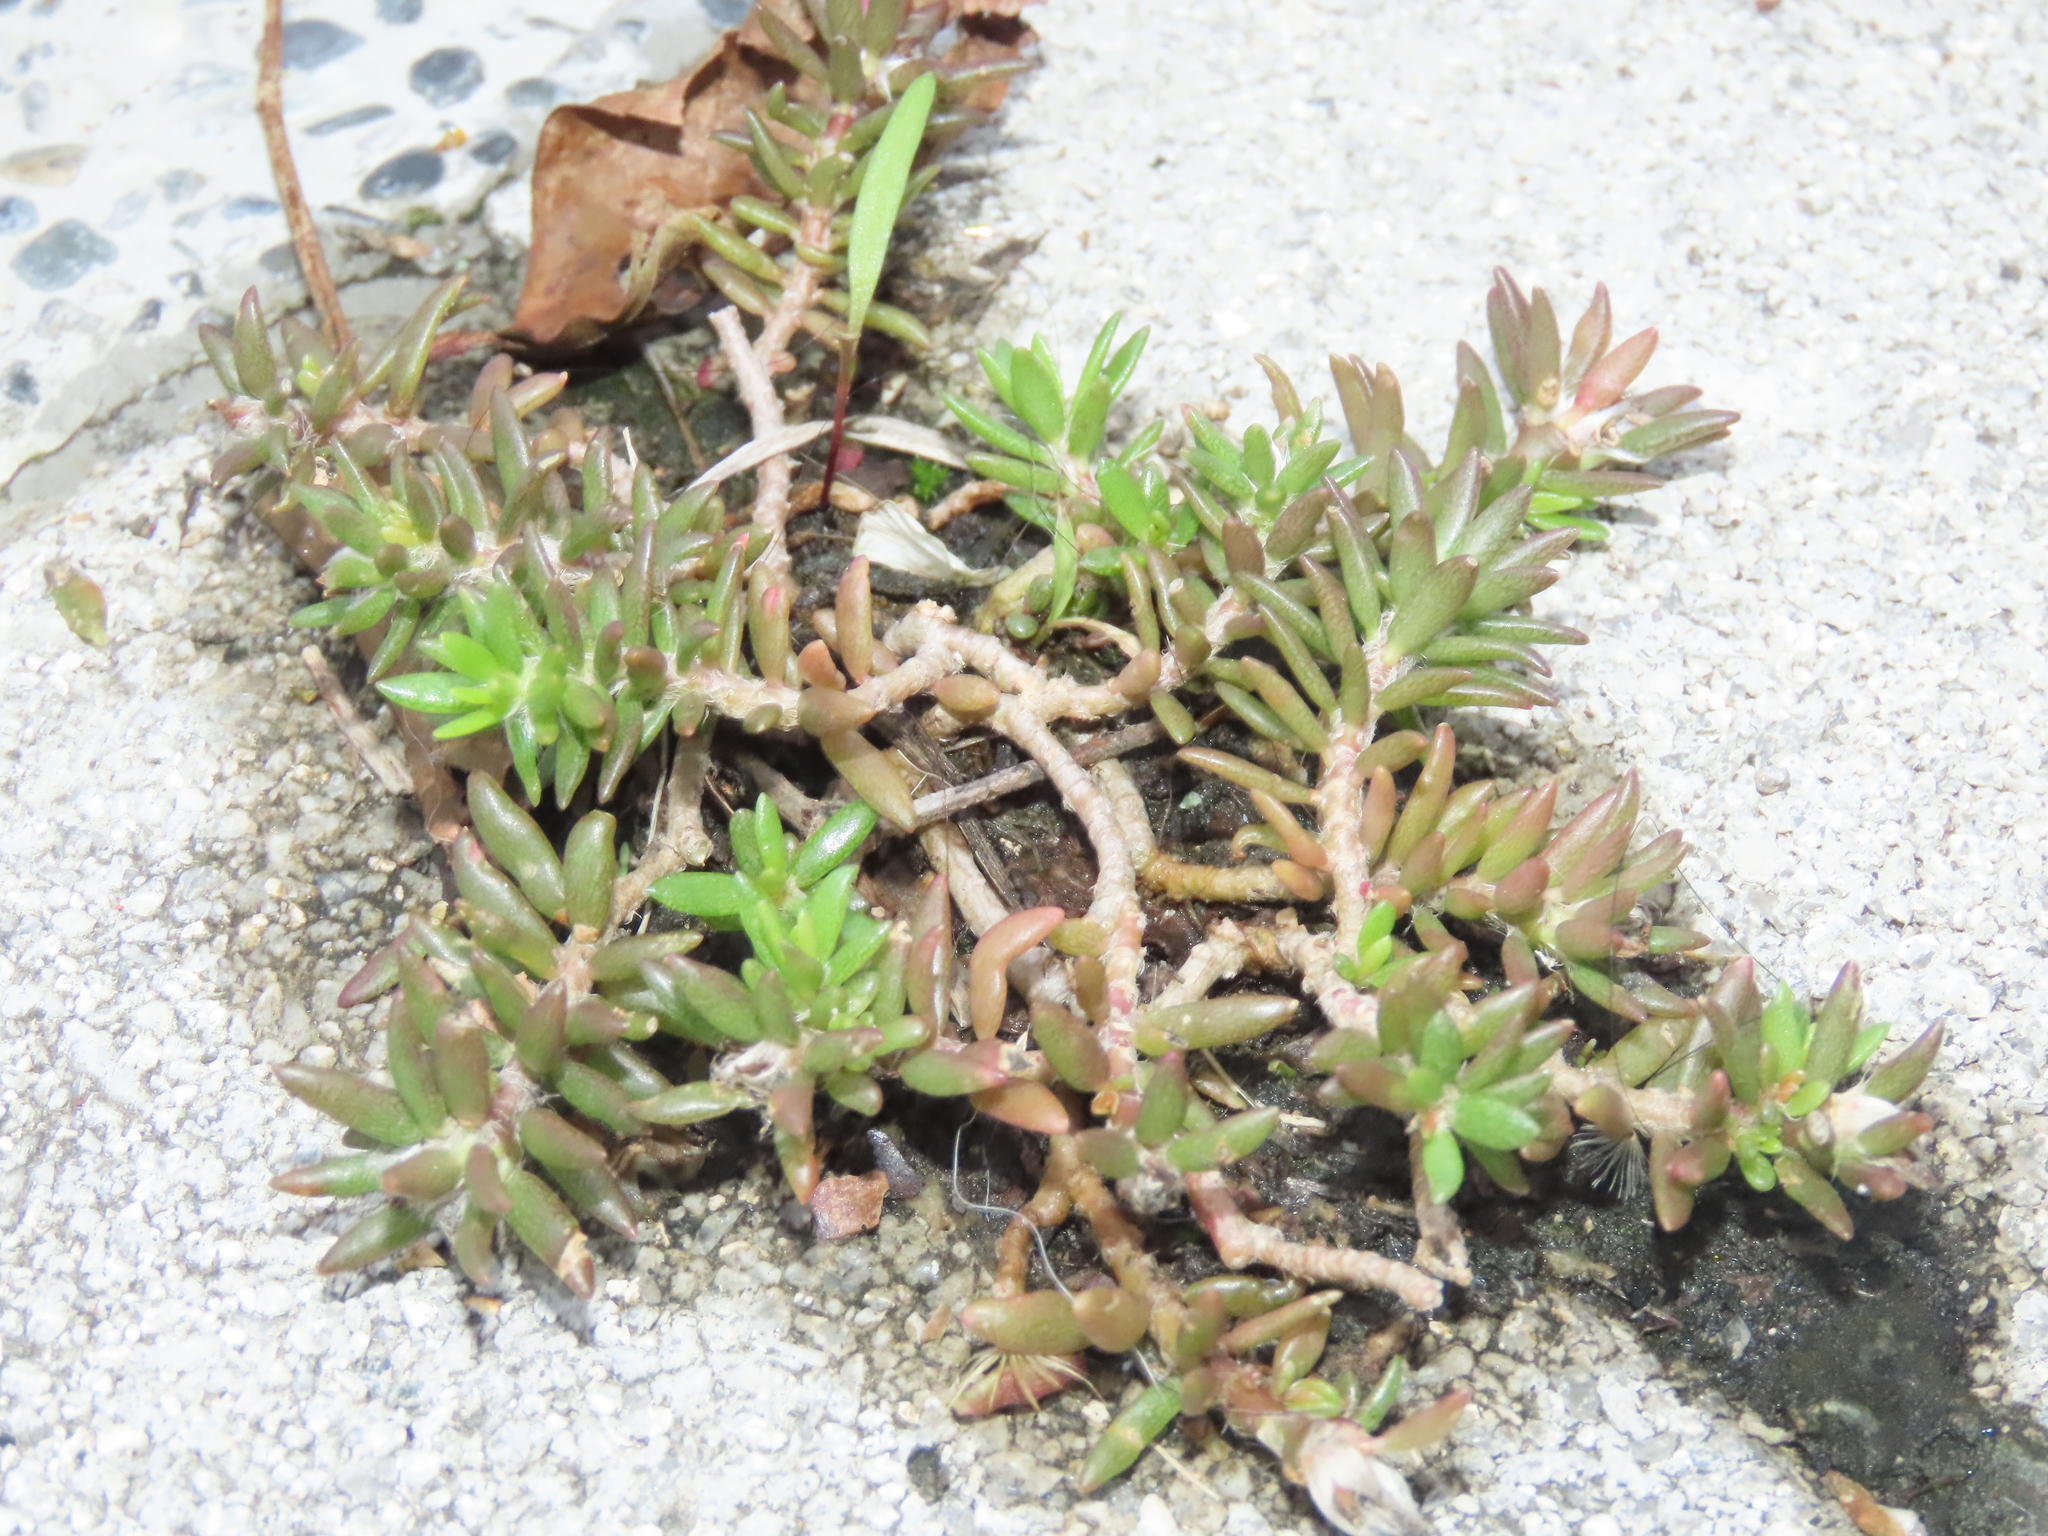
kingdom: Plantae
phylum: Tracheophyta
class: Magnoliopsida
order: Caryophyllales
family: Portulacaceae
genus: Portulaca
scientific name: Portulaca pilosa
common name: Kiss me quick
